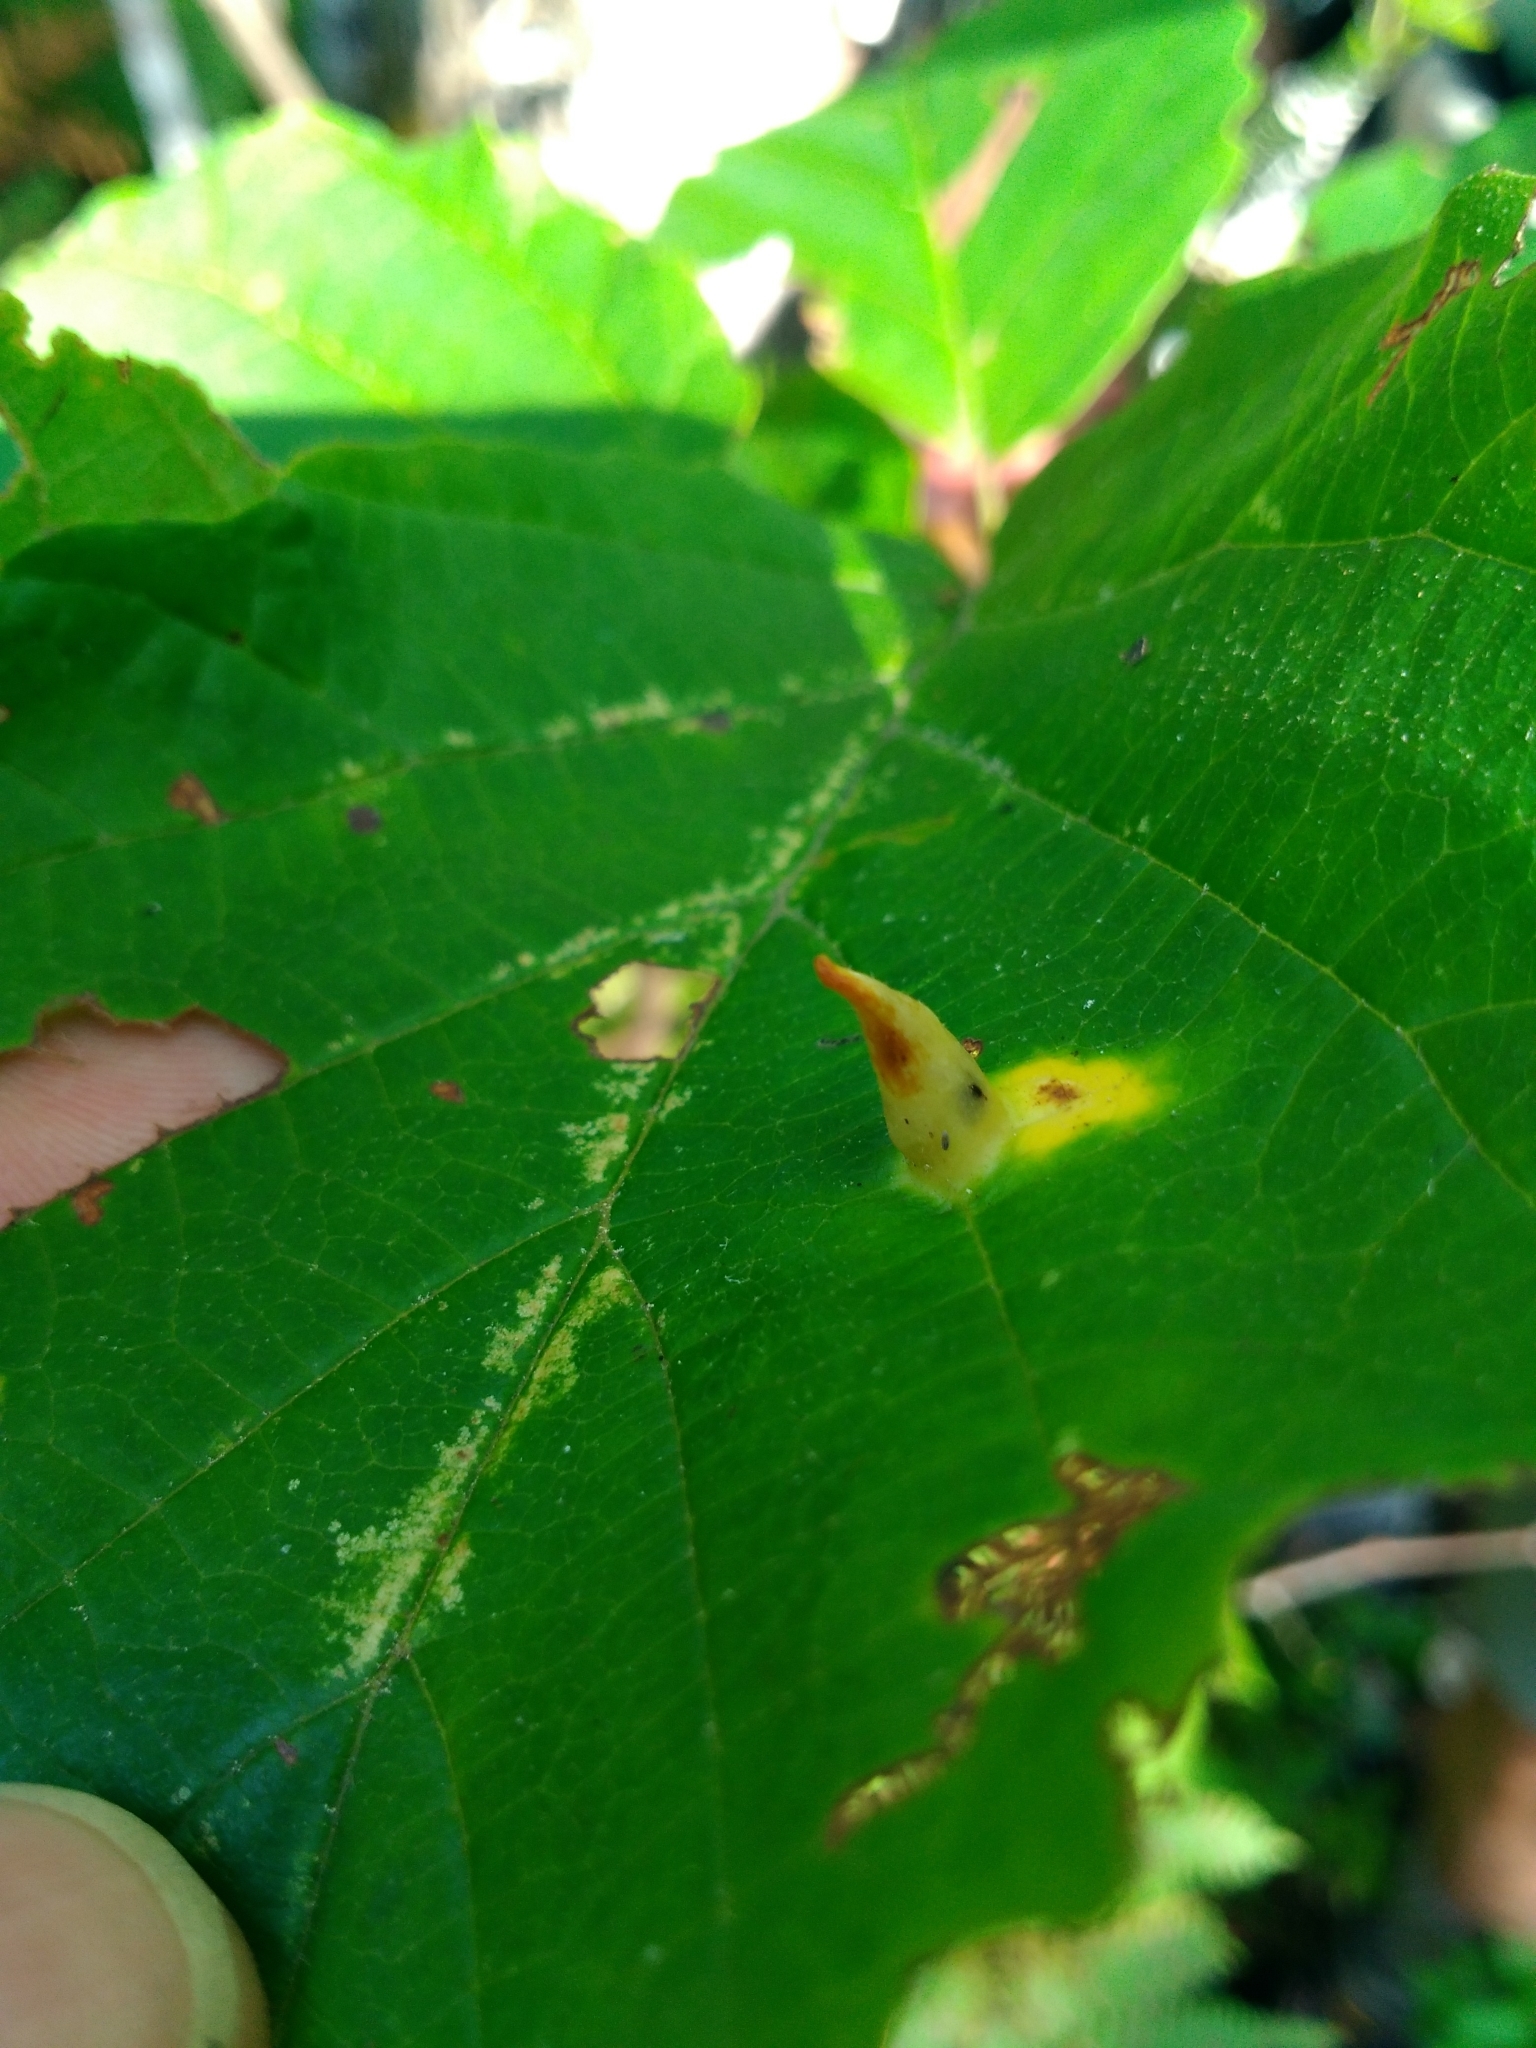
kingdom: Animalia
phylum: Arthropoda
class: Insecta
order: Hemiptera
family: Aphididae
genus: Hormaphis
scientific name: Hormaphis hamamelidis
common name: Witch-hazel cone gall aphid
